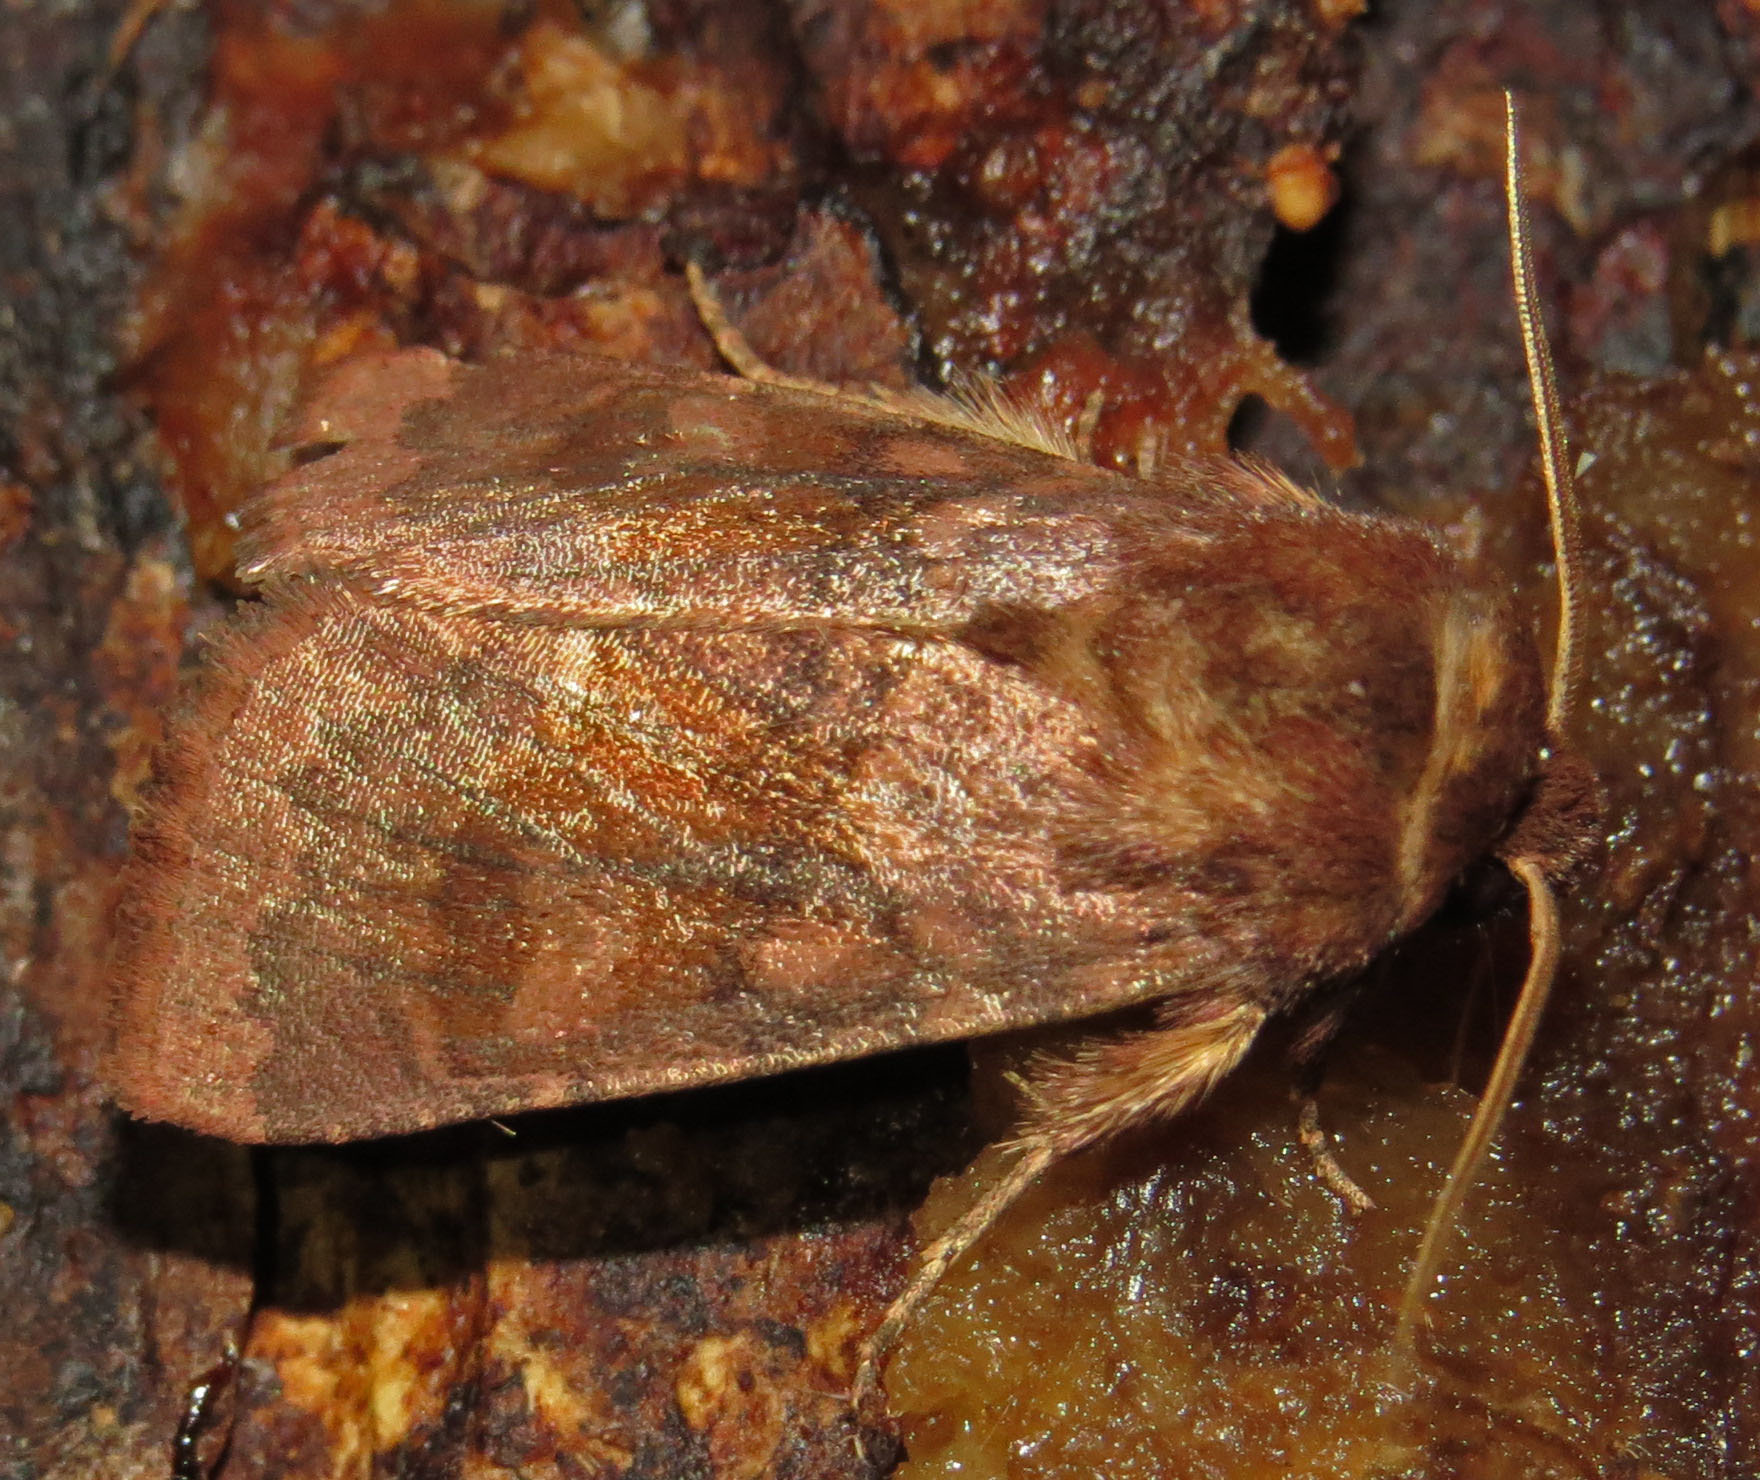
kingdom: Animalia
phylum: Arthropoda
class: Insecta
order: Lepidoptera
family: Noctuidae
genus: Nephelodes
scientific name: Nephelodes minians
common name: Bronzed cutworm
